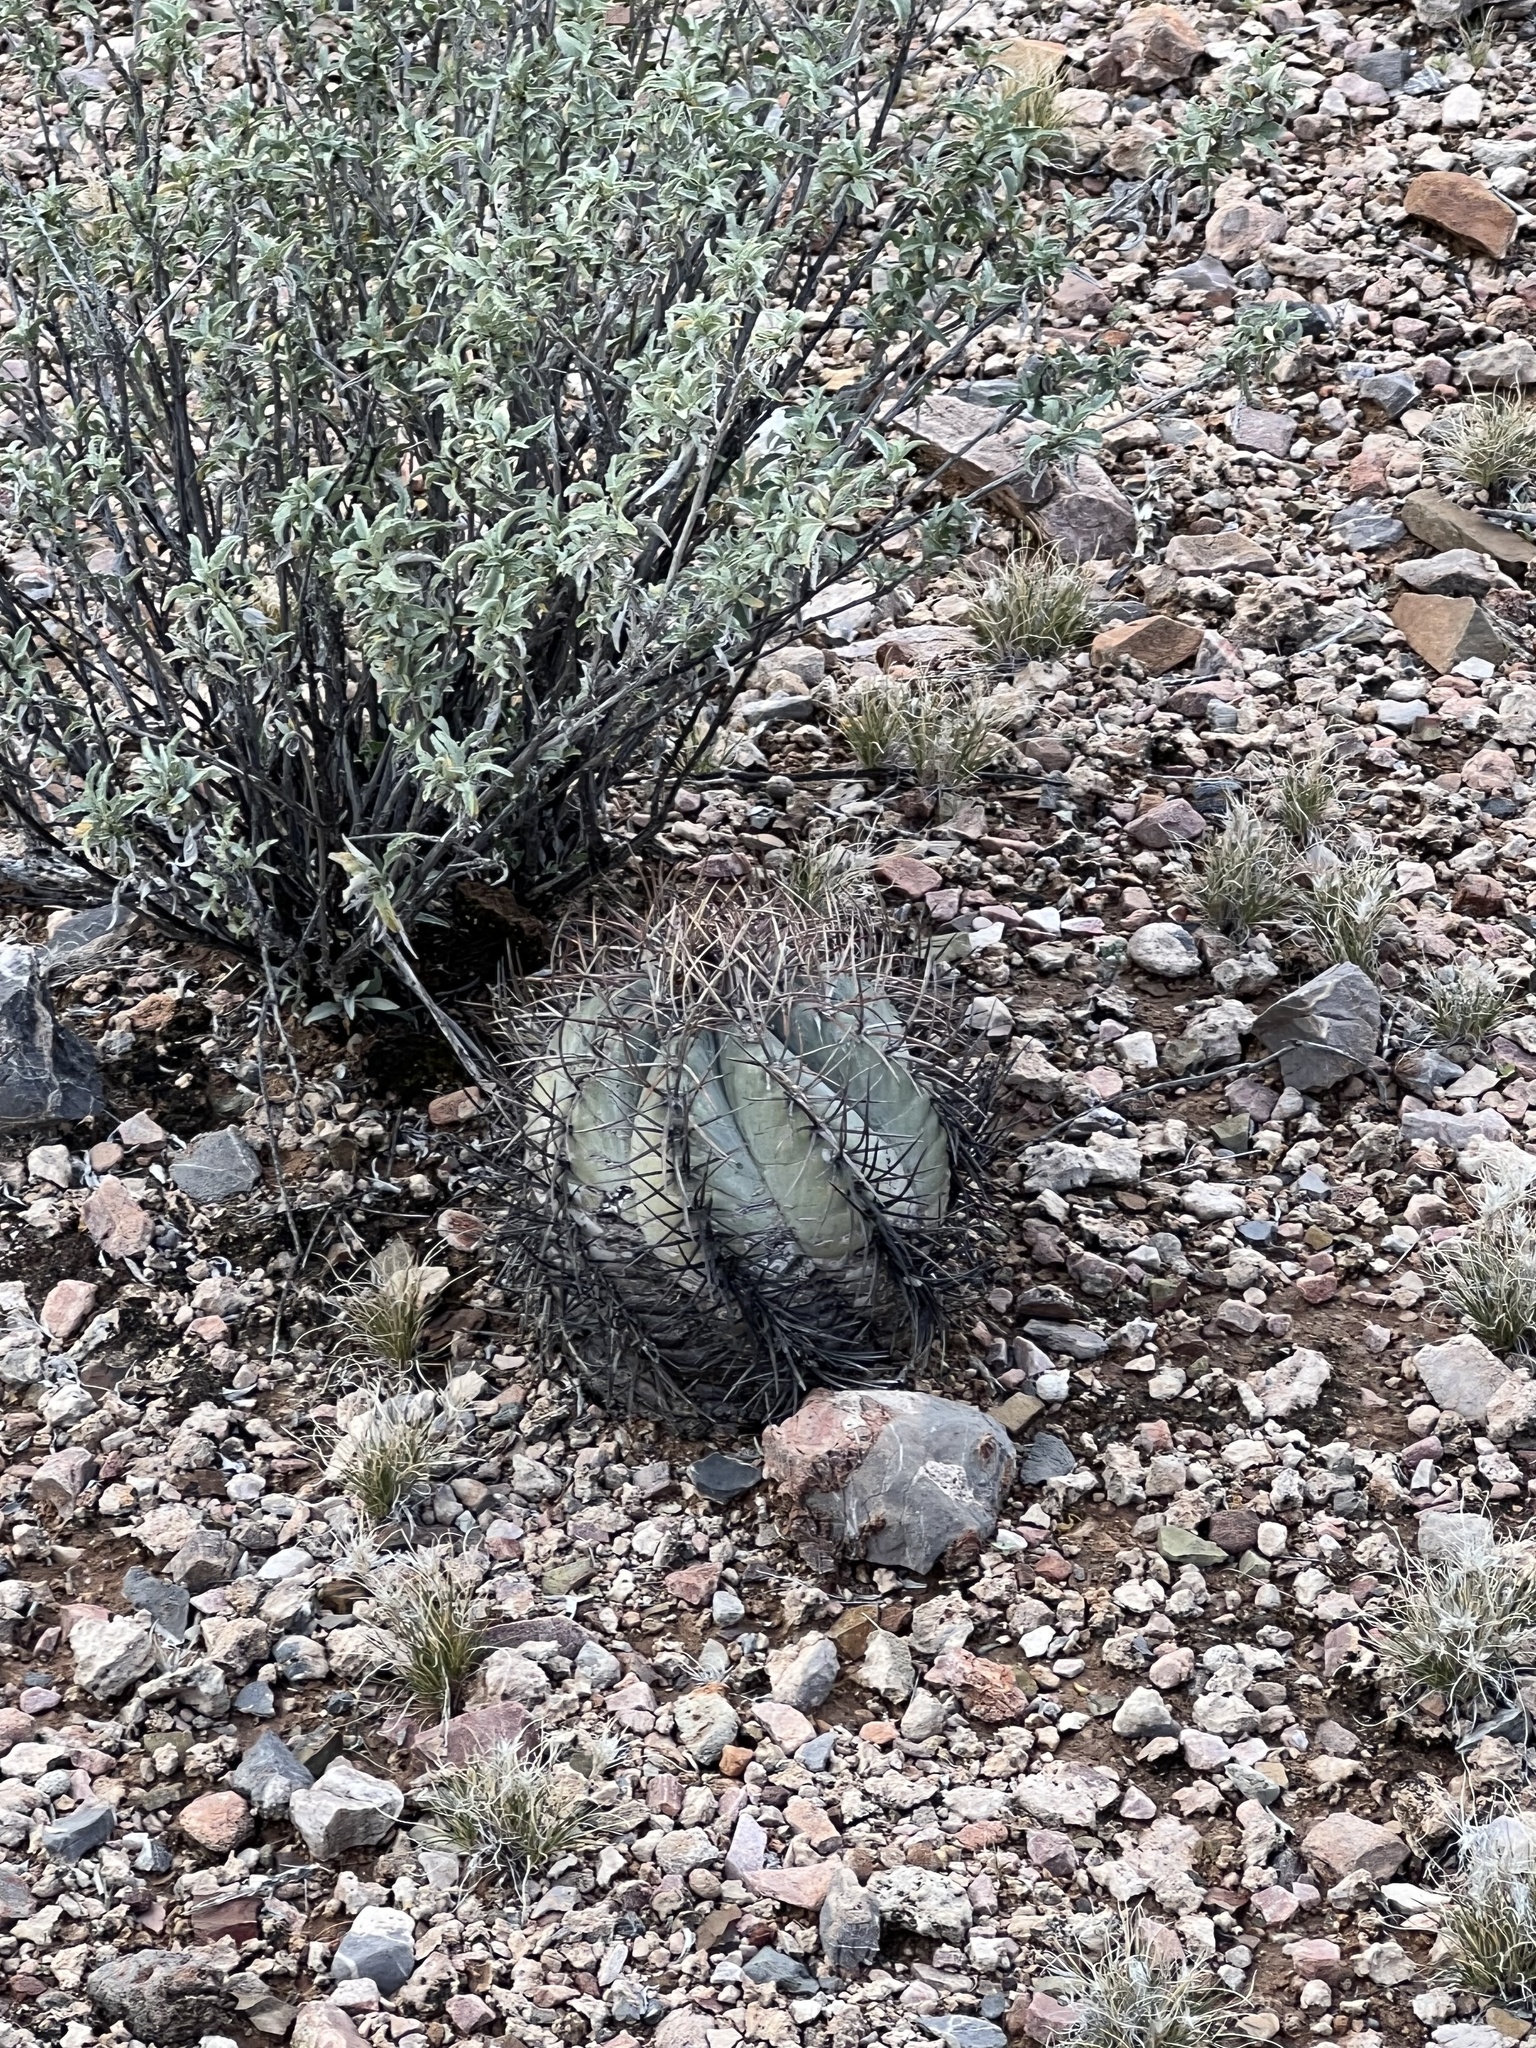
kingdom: Plantae
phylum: Tracheophyta
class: Magnoliopsida
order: Caryophyllales
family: Cactaceae
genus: Echinocactus
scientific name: Echinocactus horizonthalonius
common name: Devilshead
